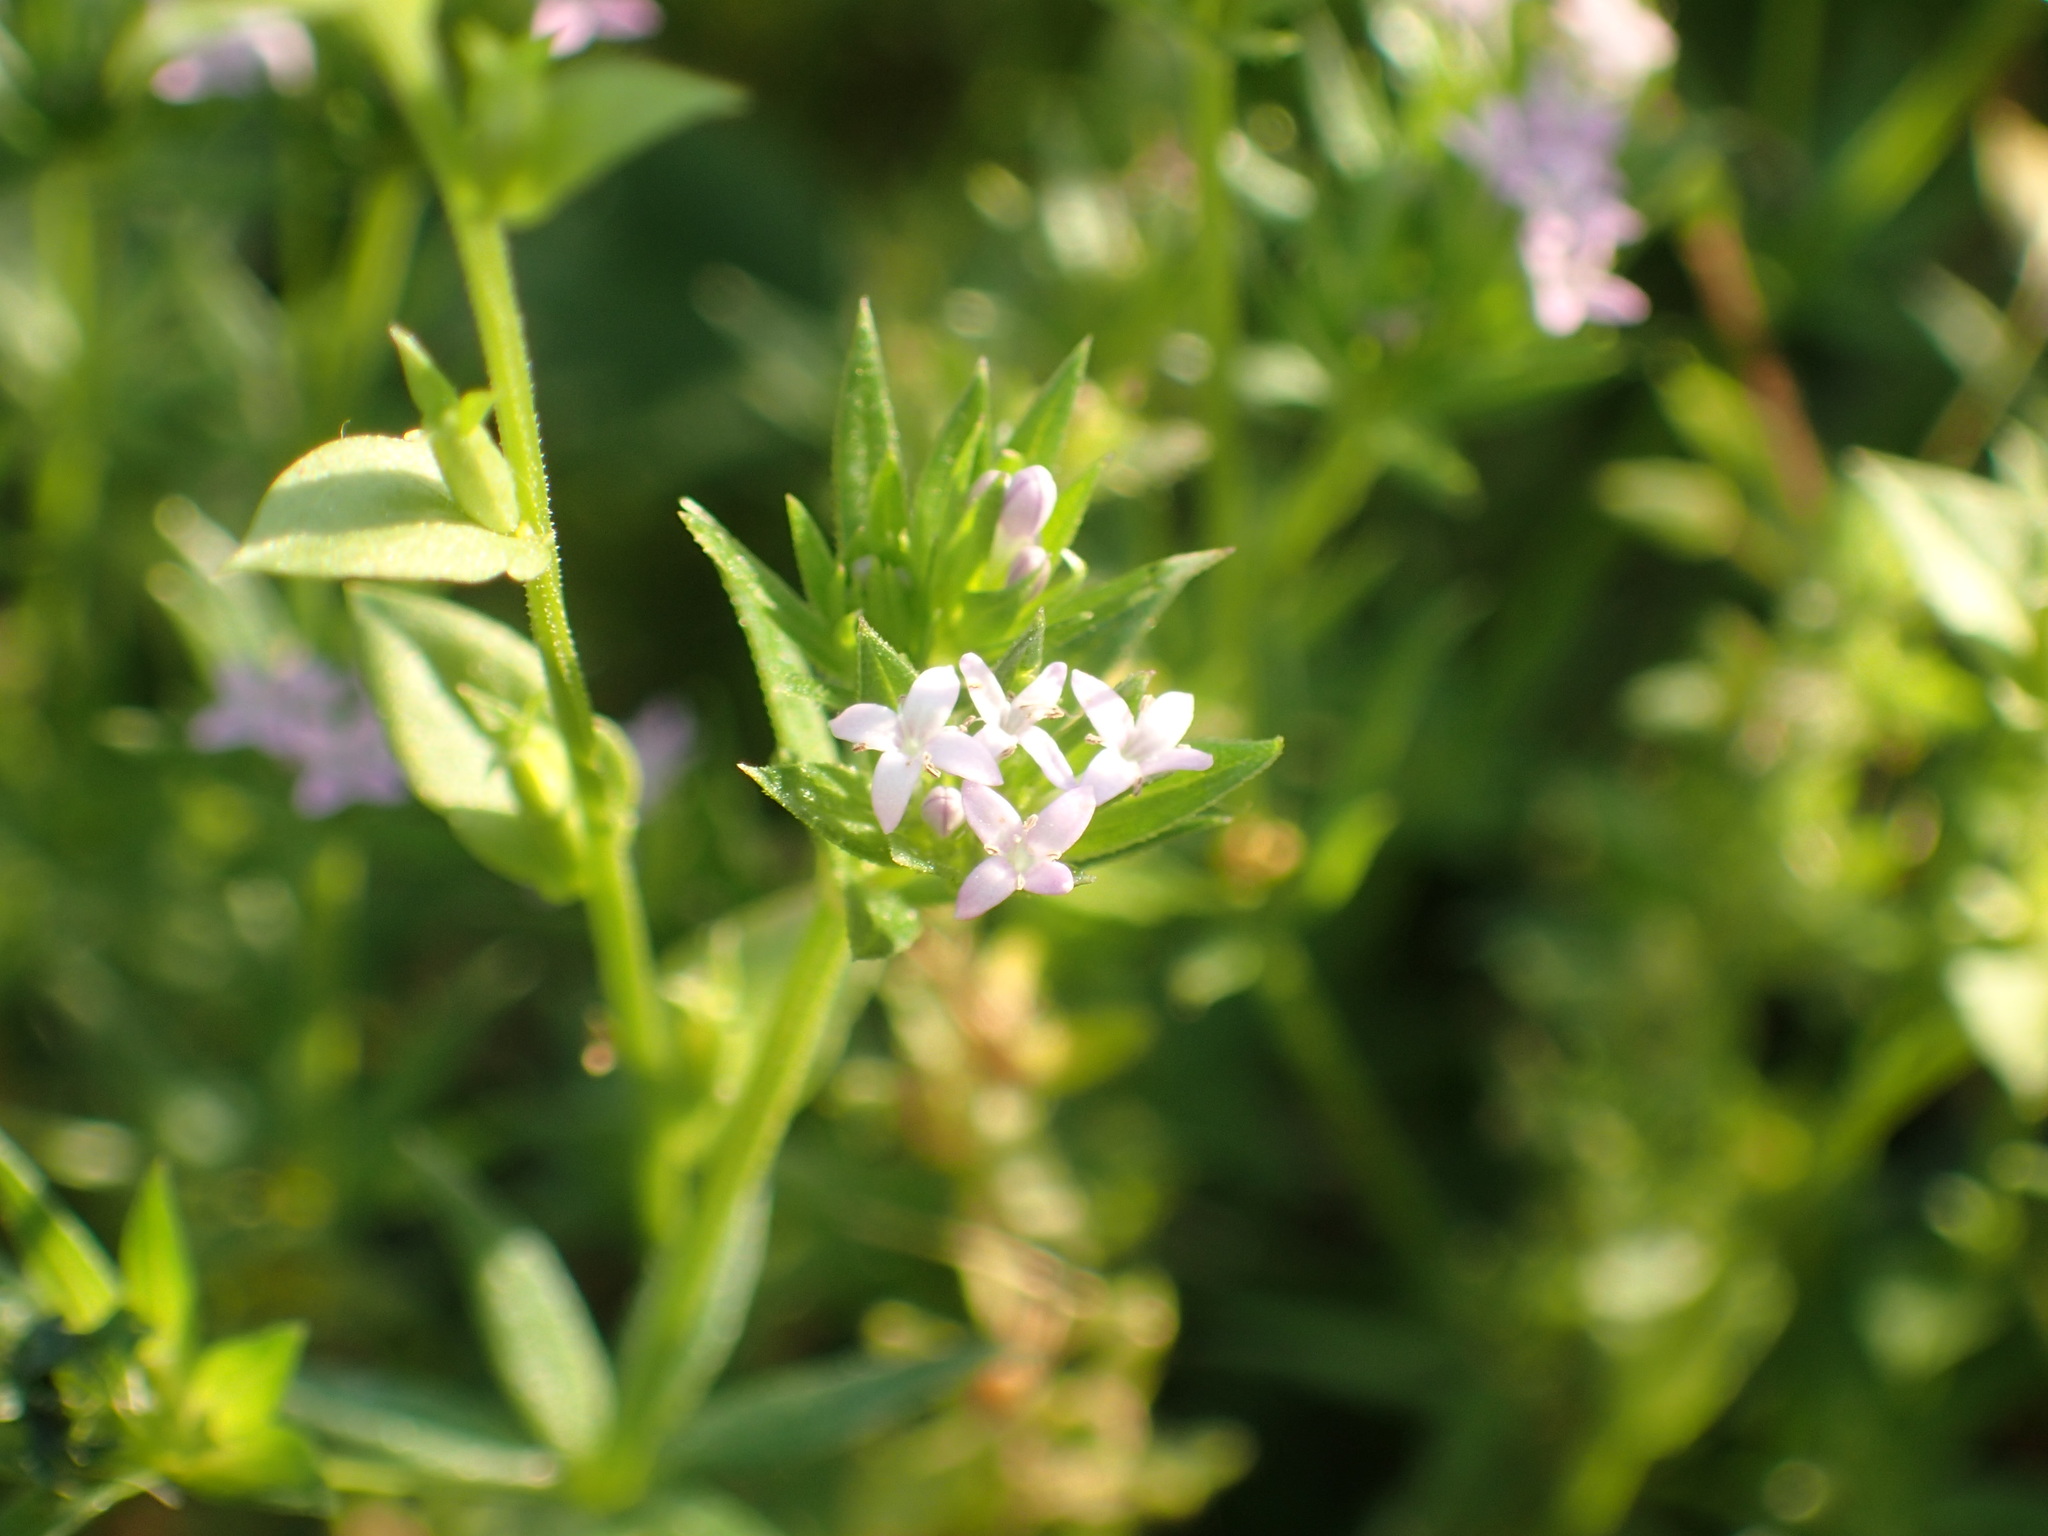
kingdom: Plantae
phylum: Tracheophyta
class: Magnoliopsida
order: Gentianales
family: Rubiaceae
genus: Sherardia
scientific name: Sherardia arvensis
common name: Field madder
